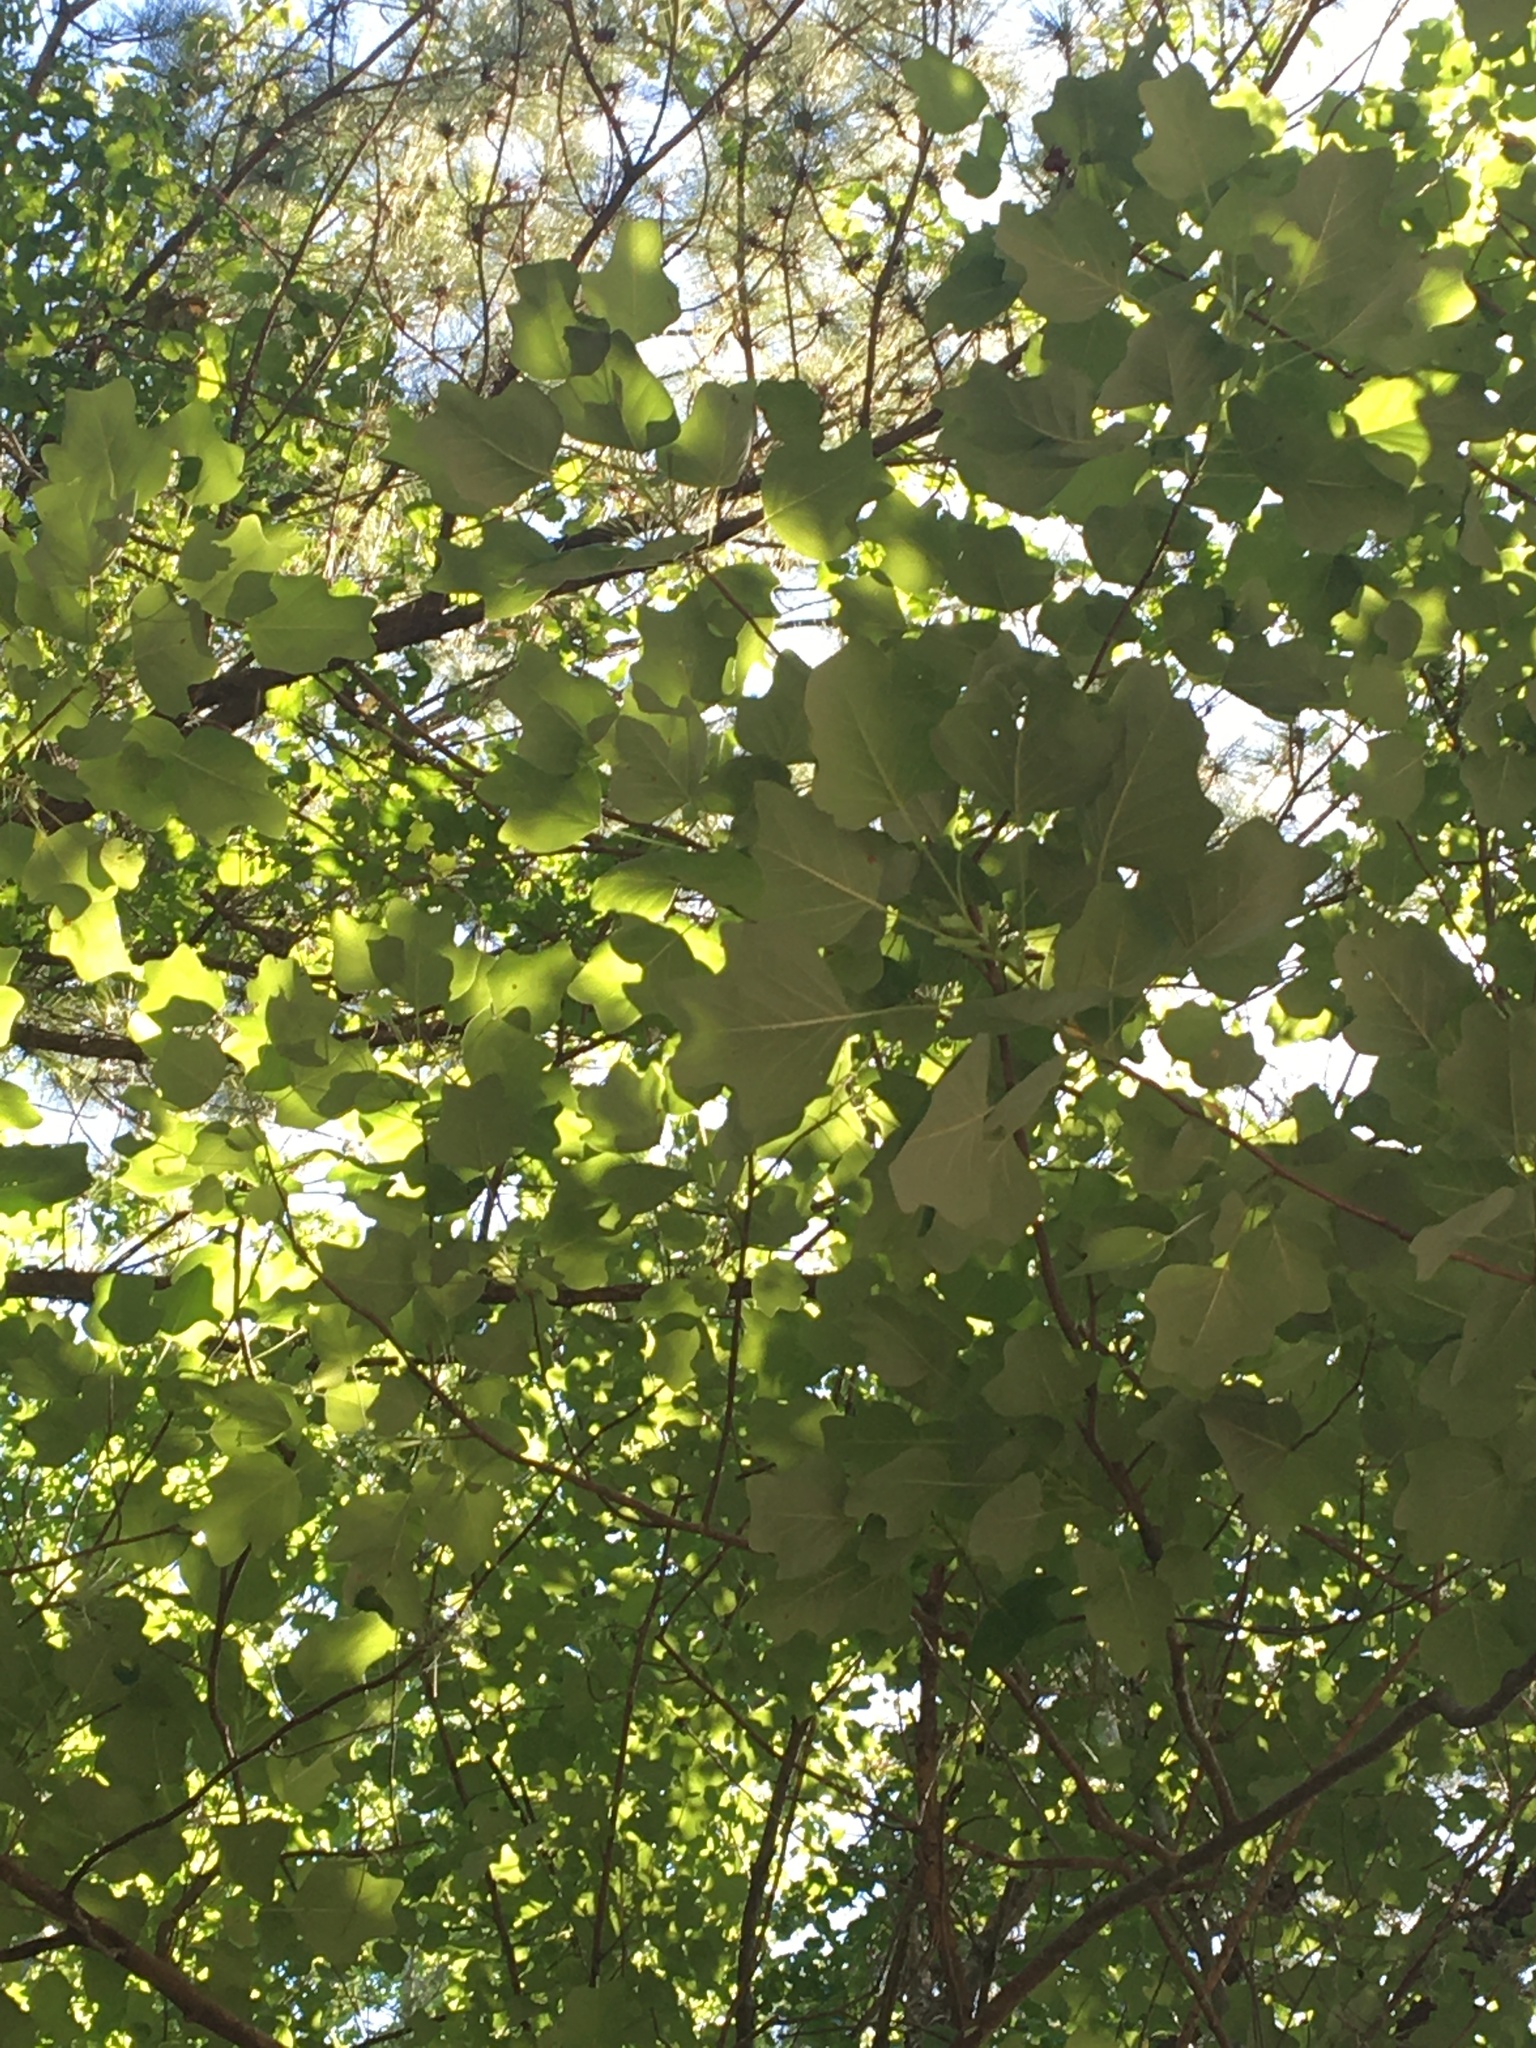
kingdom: Plantae
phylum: Tracheophyta
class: Magnoliopsida
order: Magnoliales
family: Magnoliaceae
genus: Liriodendron
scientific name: Liriodendron tulipifera
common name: Tulip tree
